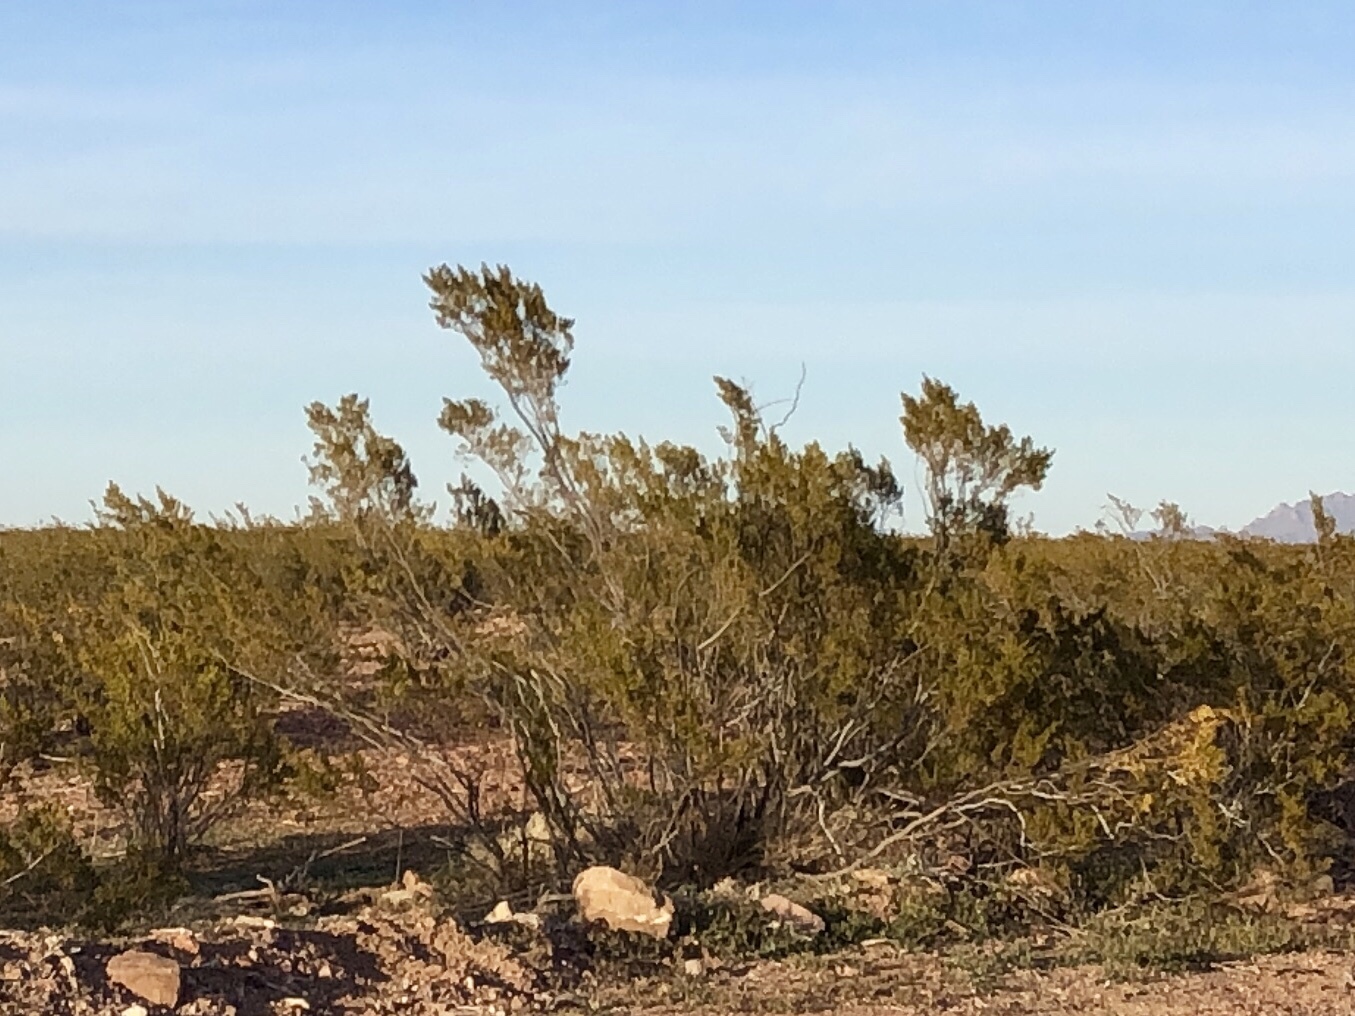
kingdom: Plantae
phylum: Tracheophyta
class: Magnoliopsida
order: Zygophyllales
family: Zygophyllaceae
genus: Larrea
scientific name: Larrea tridentata
